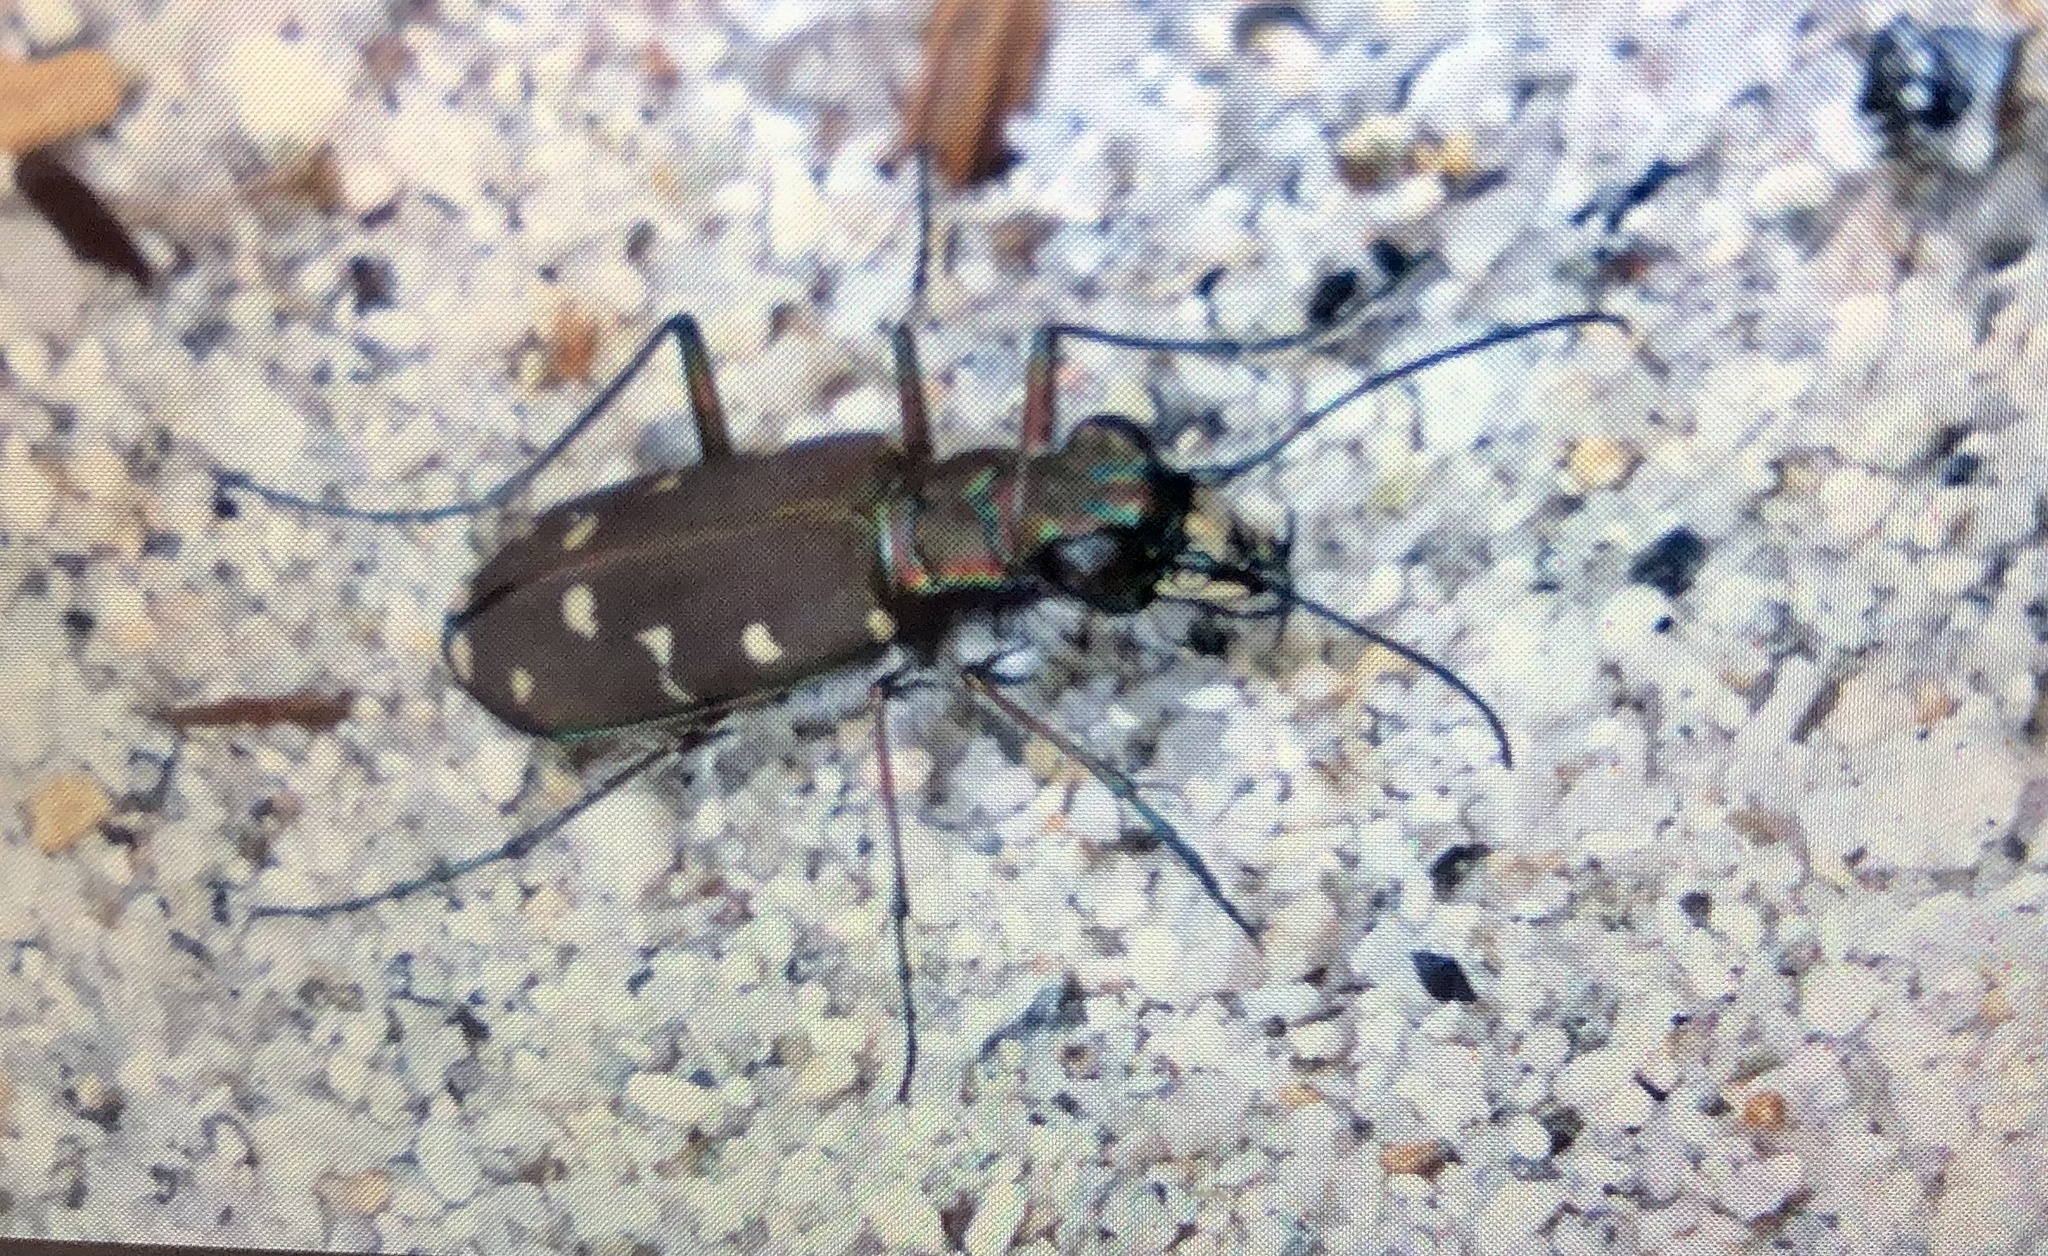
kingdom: Animalia
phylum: Arthropoda
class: Insecta
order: Coleoptera
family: Carabidae
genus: Cicindela
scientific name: Cicindela oregona
